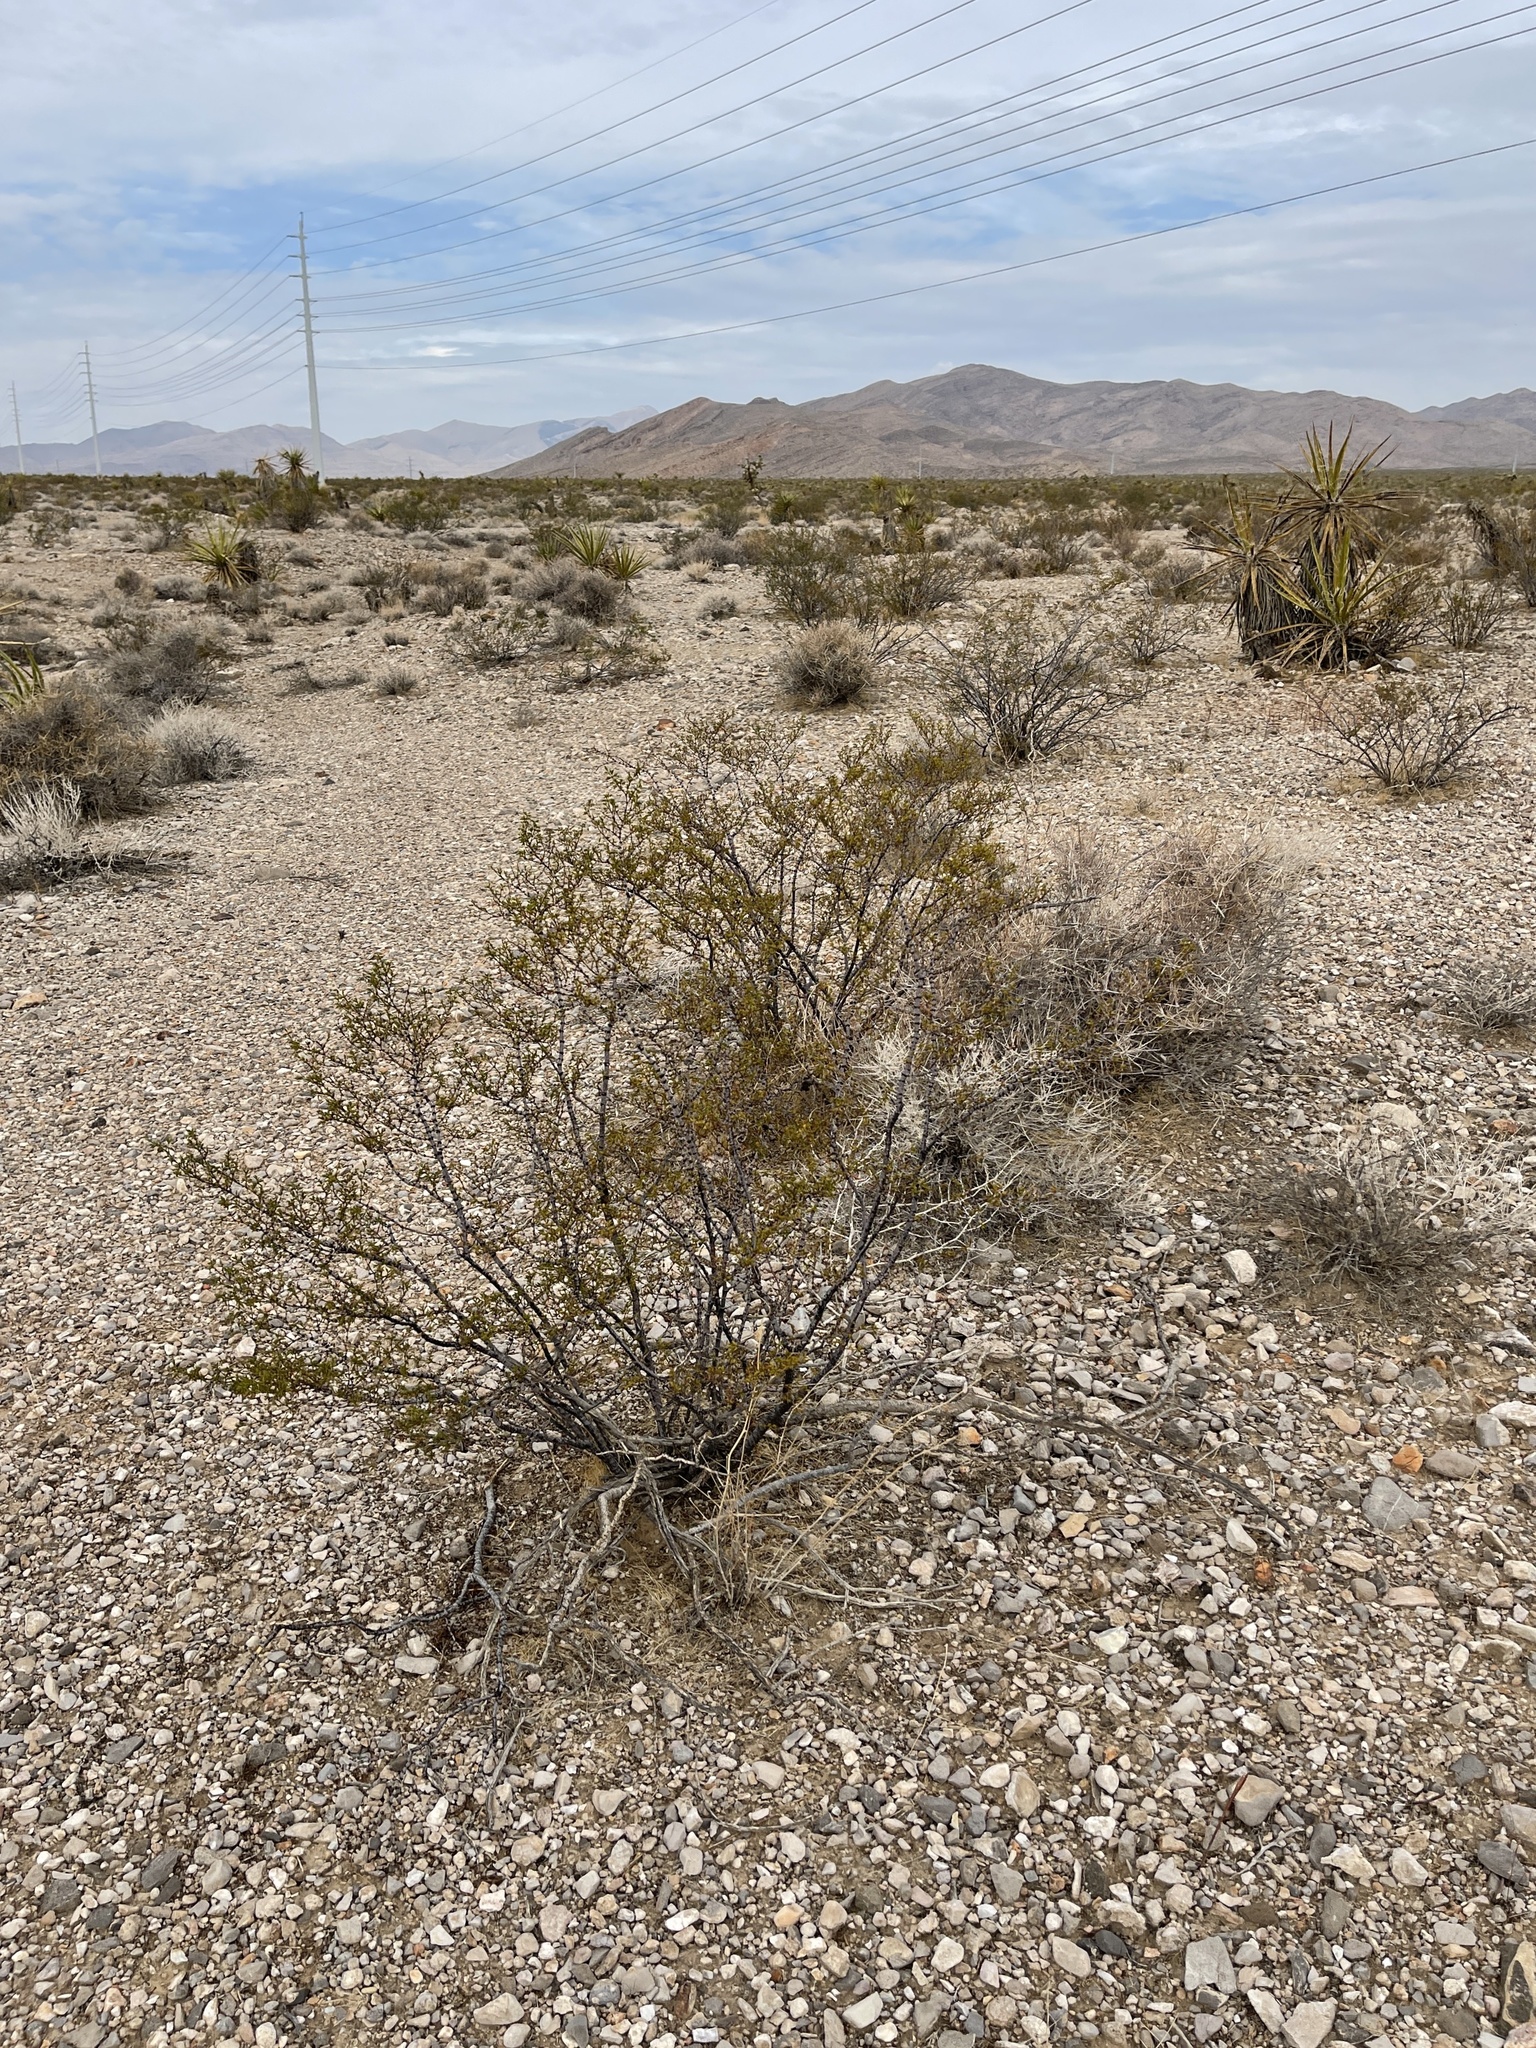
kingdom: Plantae
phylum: Tracheophyta
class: Magnoliopsida
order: Zygophyllales
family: Zygophyllaceae
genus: Larrea
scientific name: Larrea tridentata
